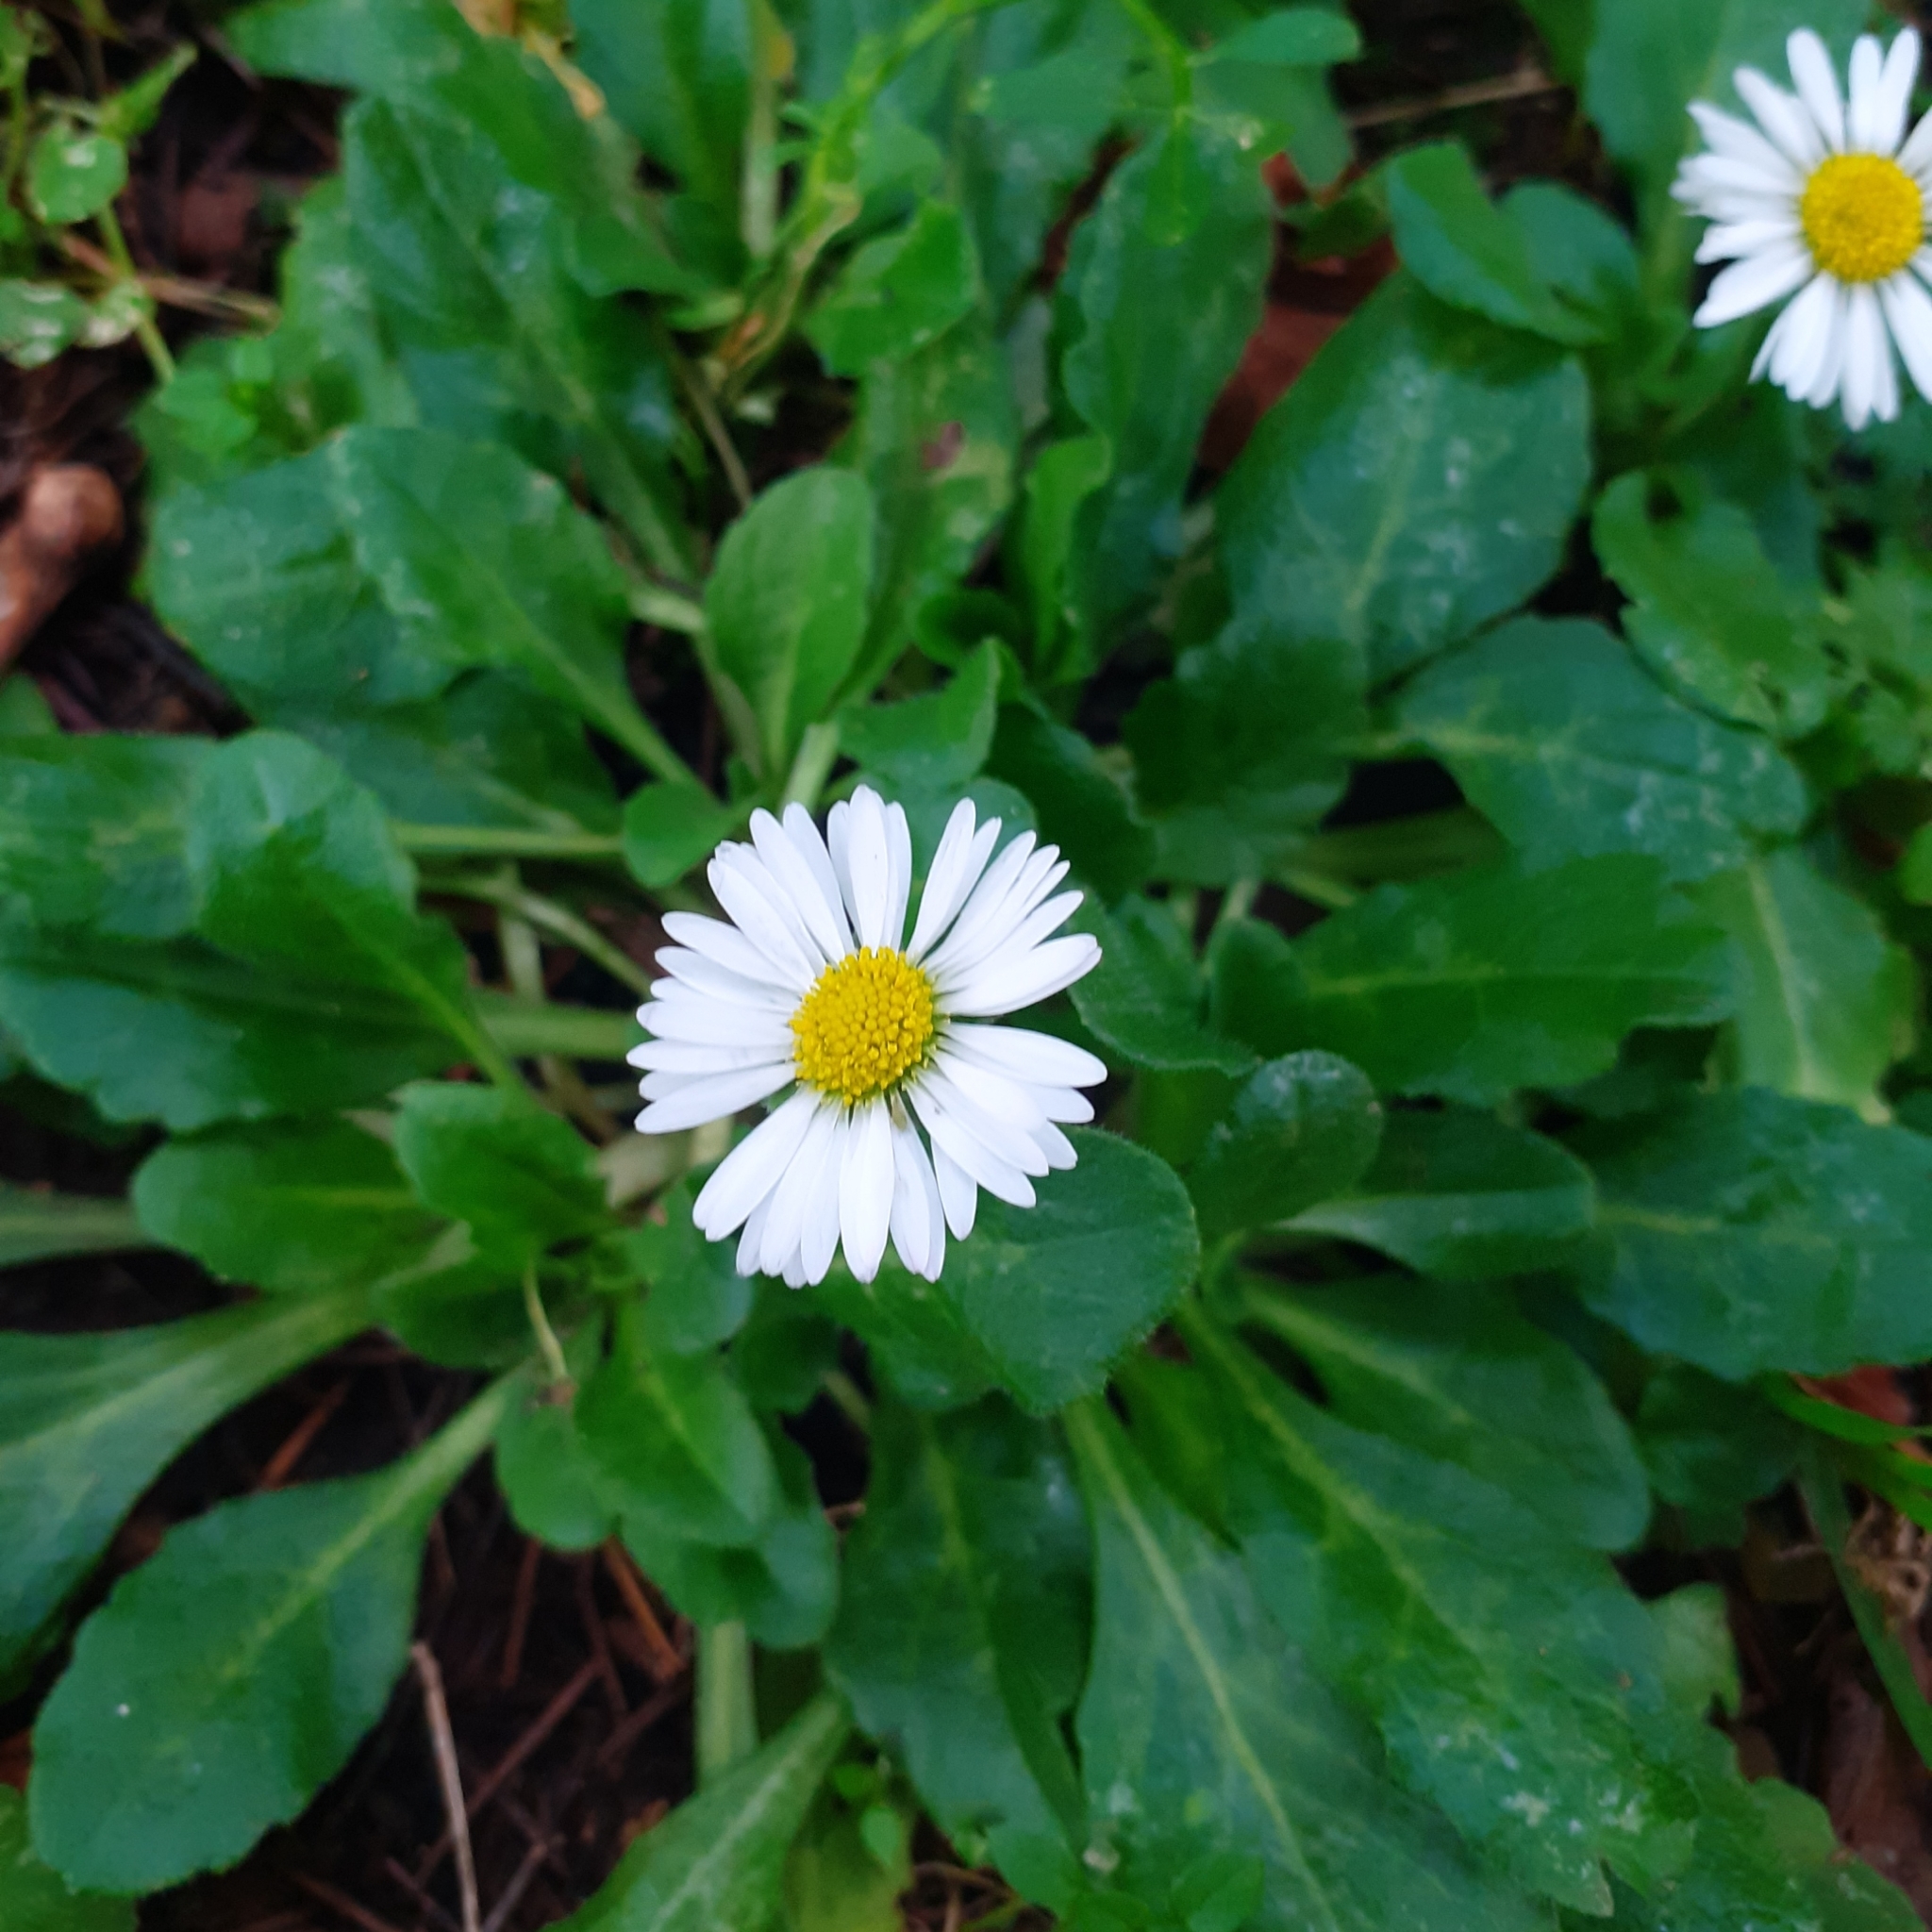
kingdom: Plantae
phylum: Tracheophyta
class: Magnoliopsida
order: Asterales
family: Asteraceae
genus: Bellis
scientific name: Bellis perennis
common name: Lawndaisy
